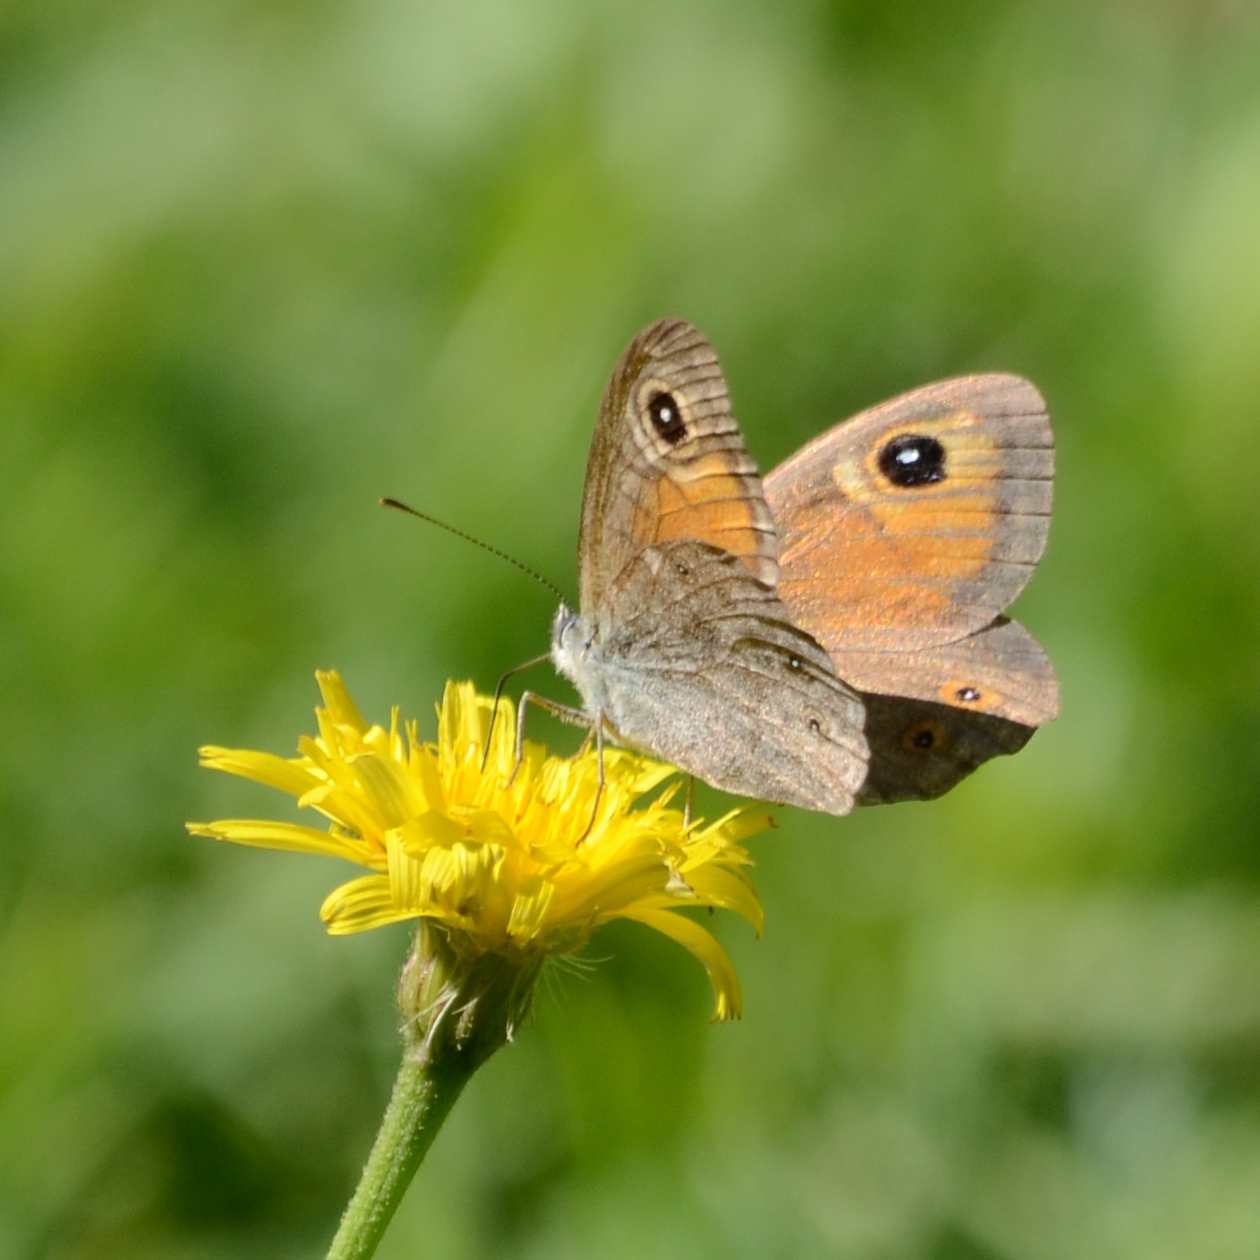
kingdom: Animalia
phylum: Arthropoda
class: Insecta
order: Lepidoptera
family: Nymphalidae
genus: Pararge
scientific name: Pararge Lasiommata maera
